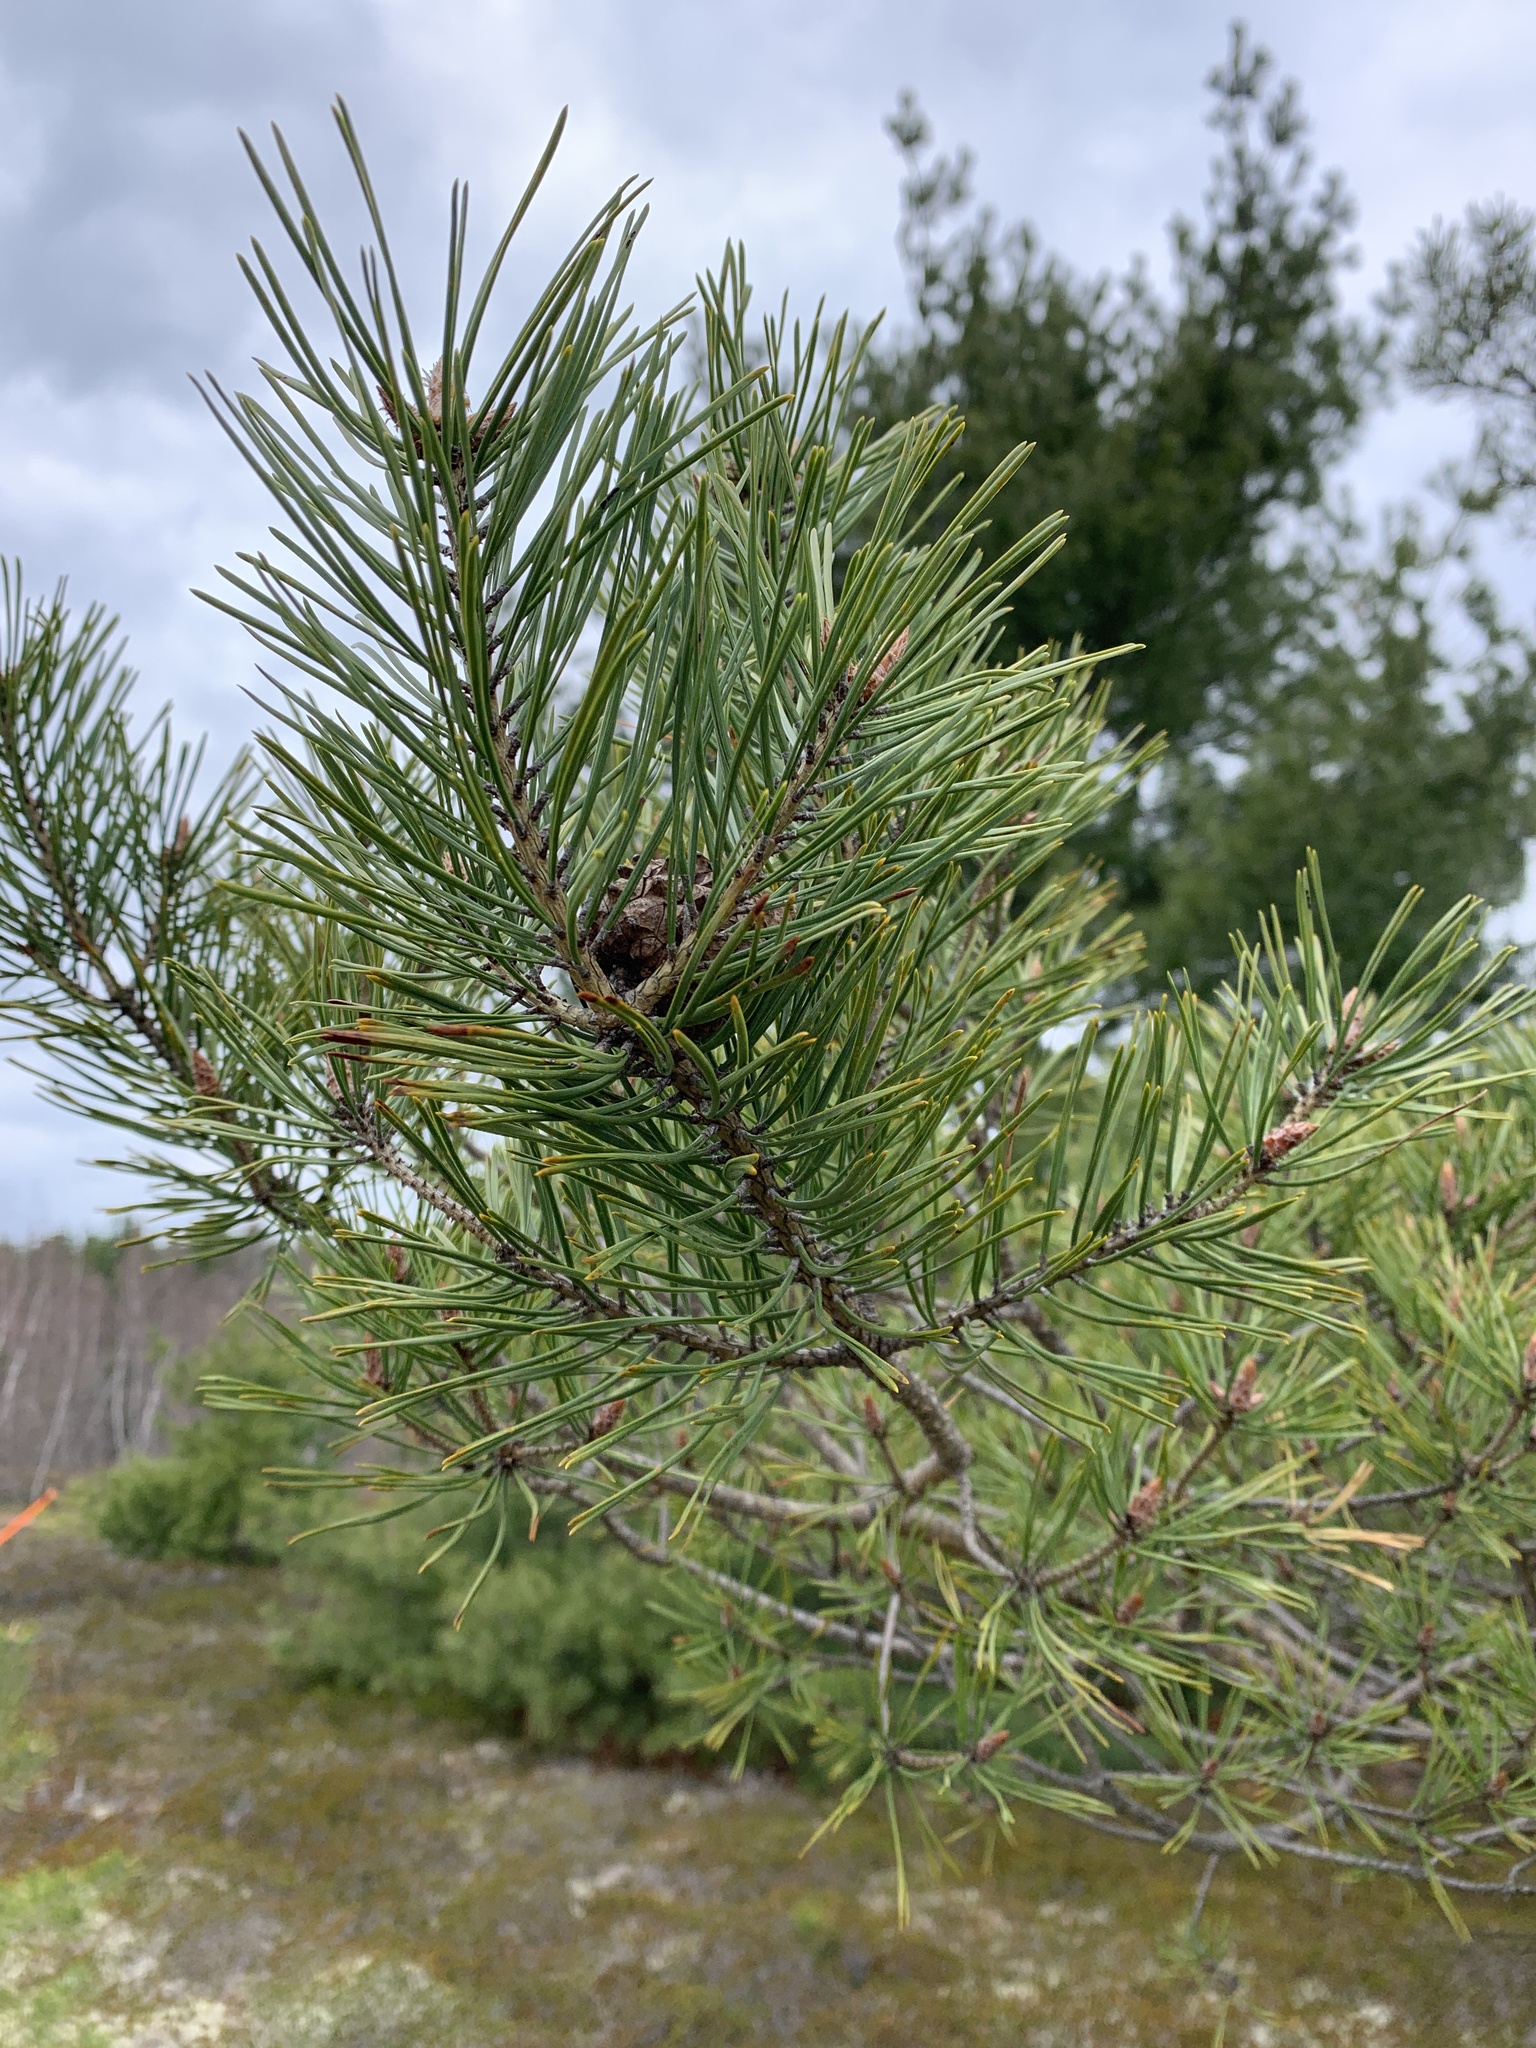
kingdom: Plantae
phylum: Tracheophyta
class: Pinopsida
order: Pinales
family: Pinaceae
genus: Pinus
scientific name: Pinus sylvestris
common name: Scots pine
